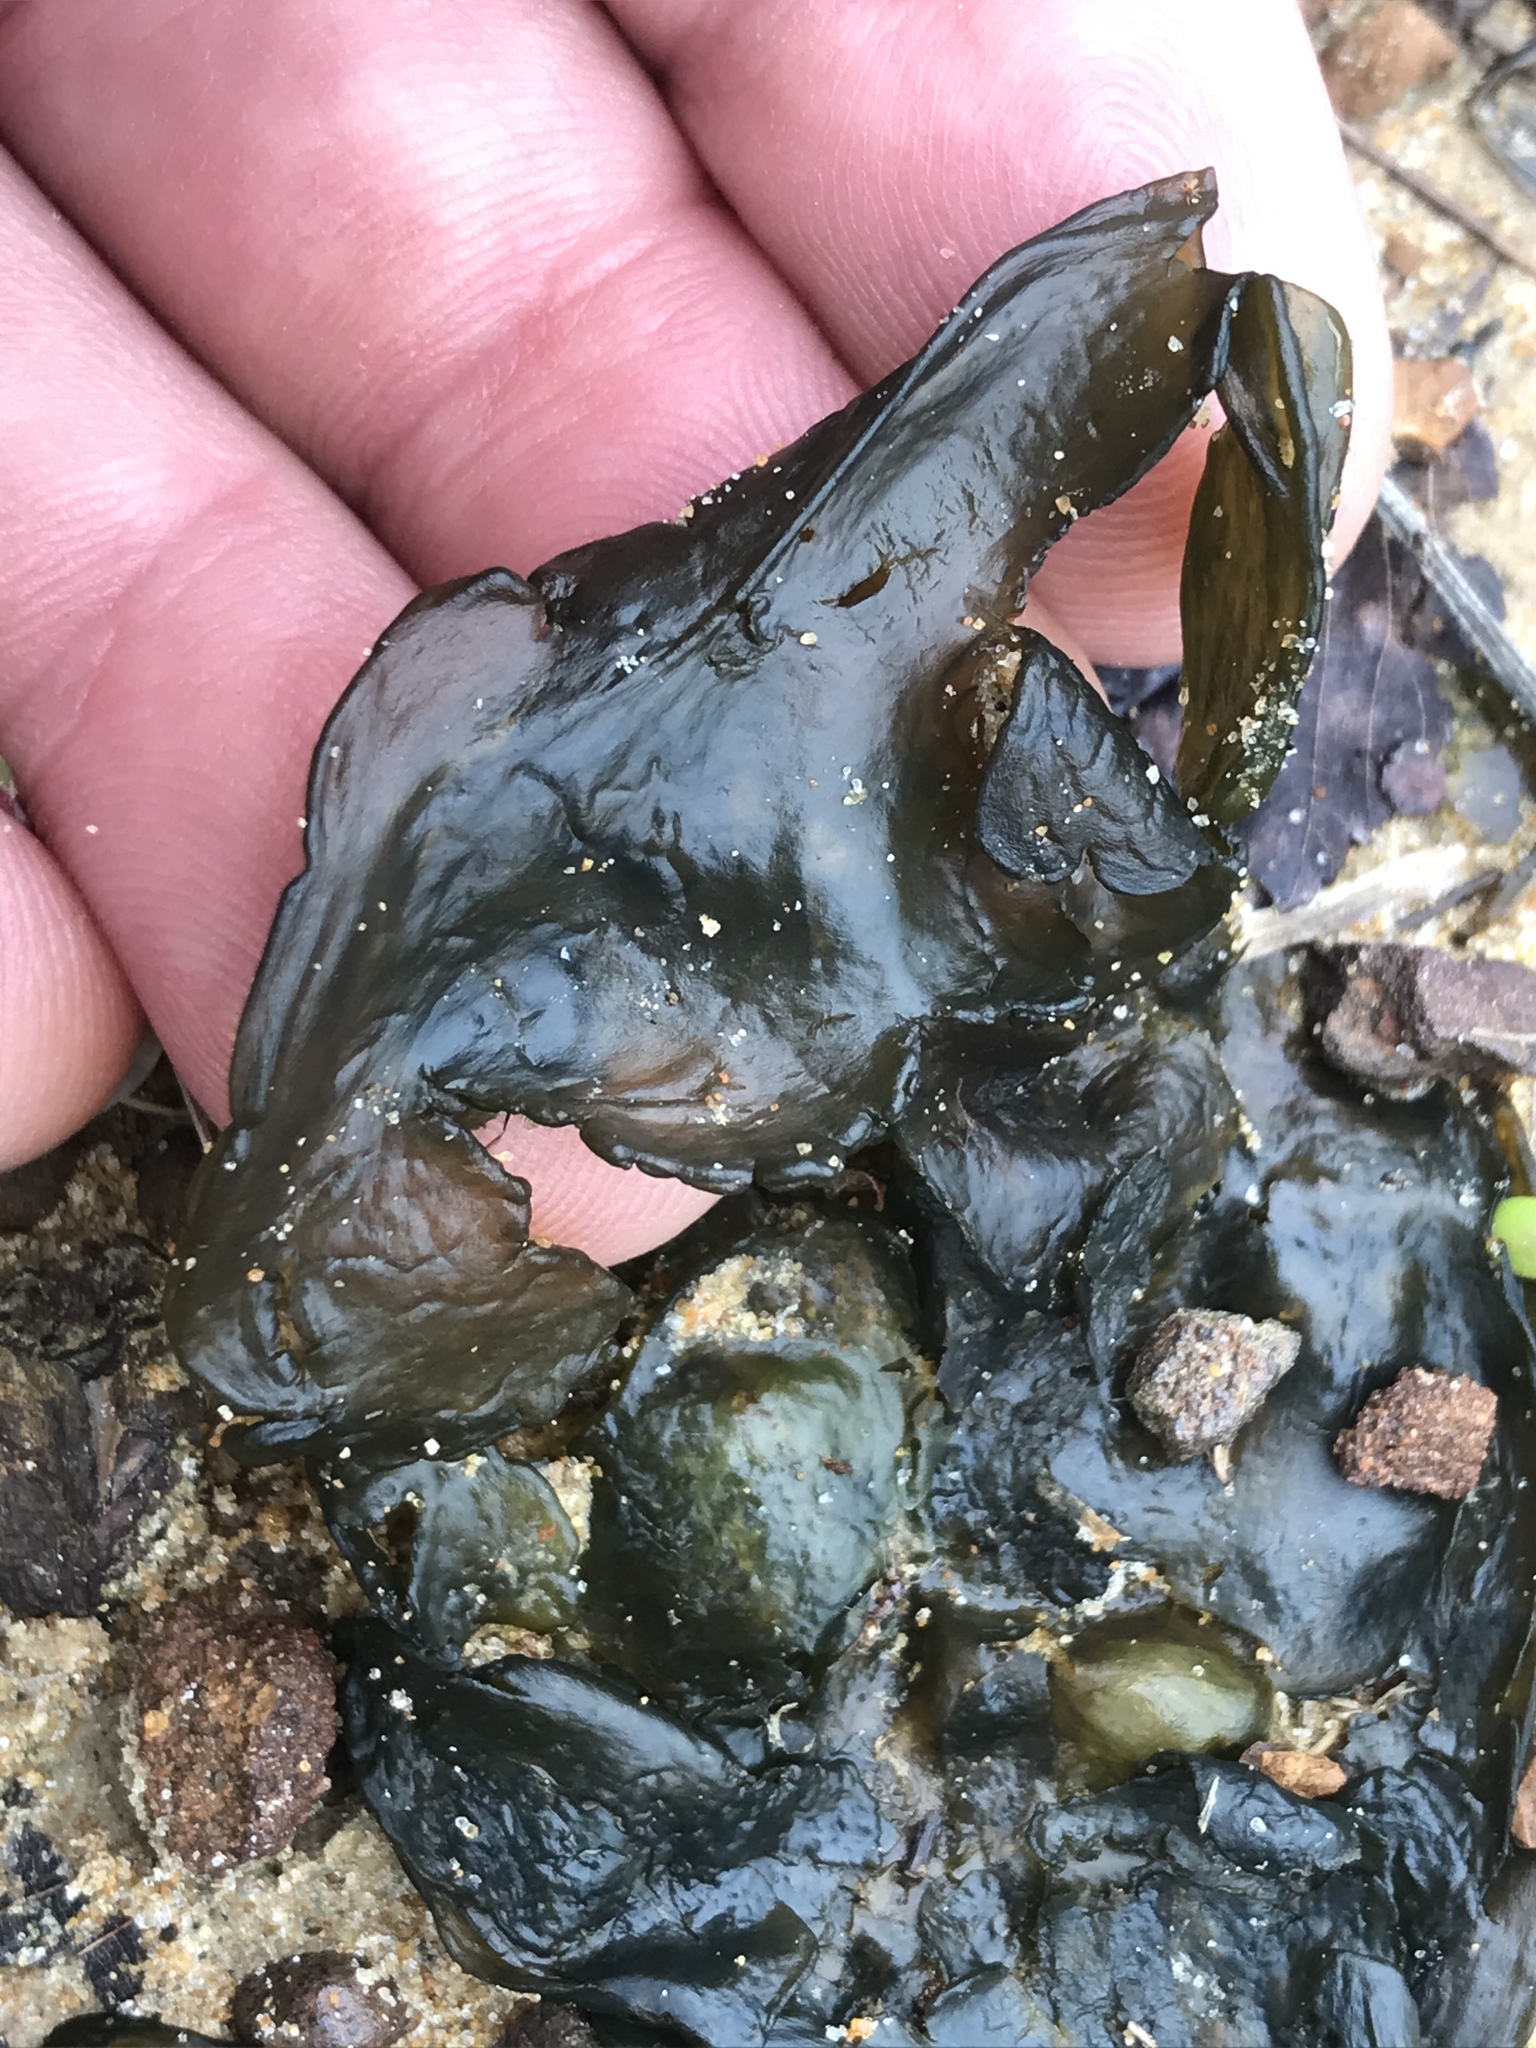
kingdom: Bacteria
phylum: Cyanobacteria
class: Cyanobacteriia
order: Cyanobacteriales
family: Nostocaceae
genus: Nostoc
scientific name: Nostoc commune
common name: Star jelly
